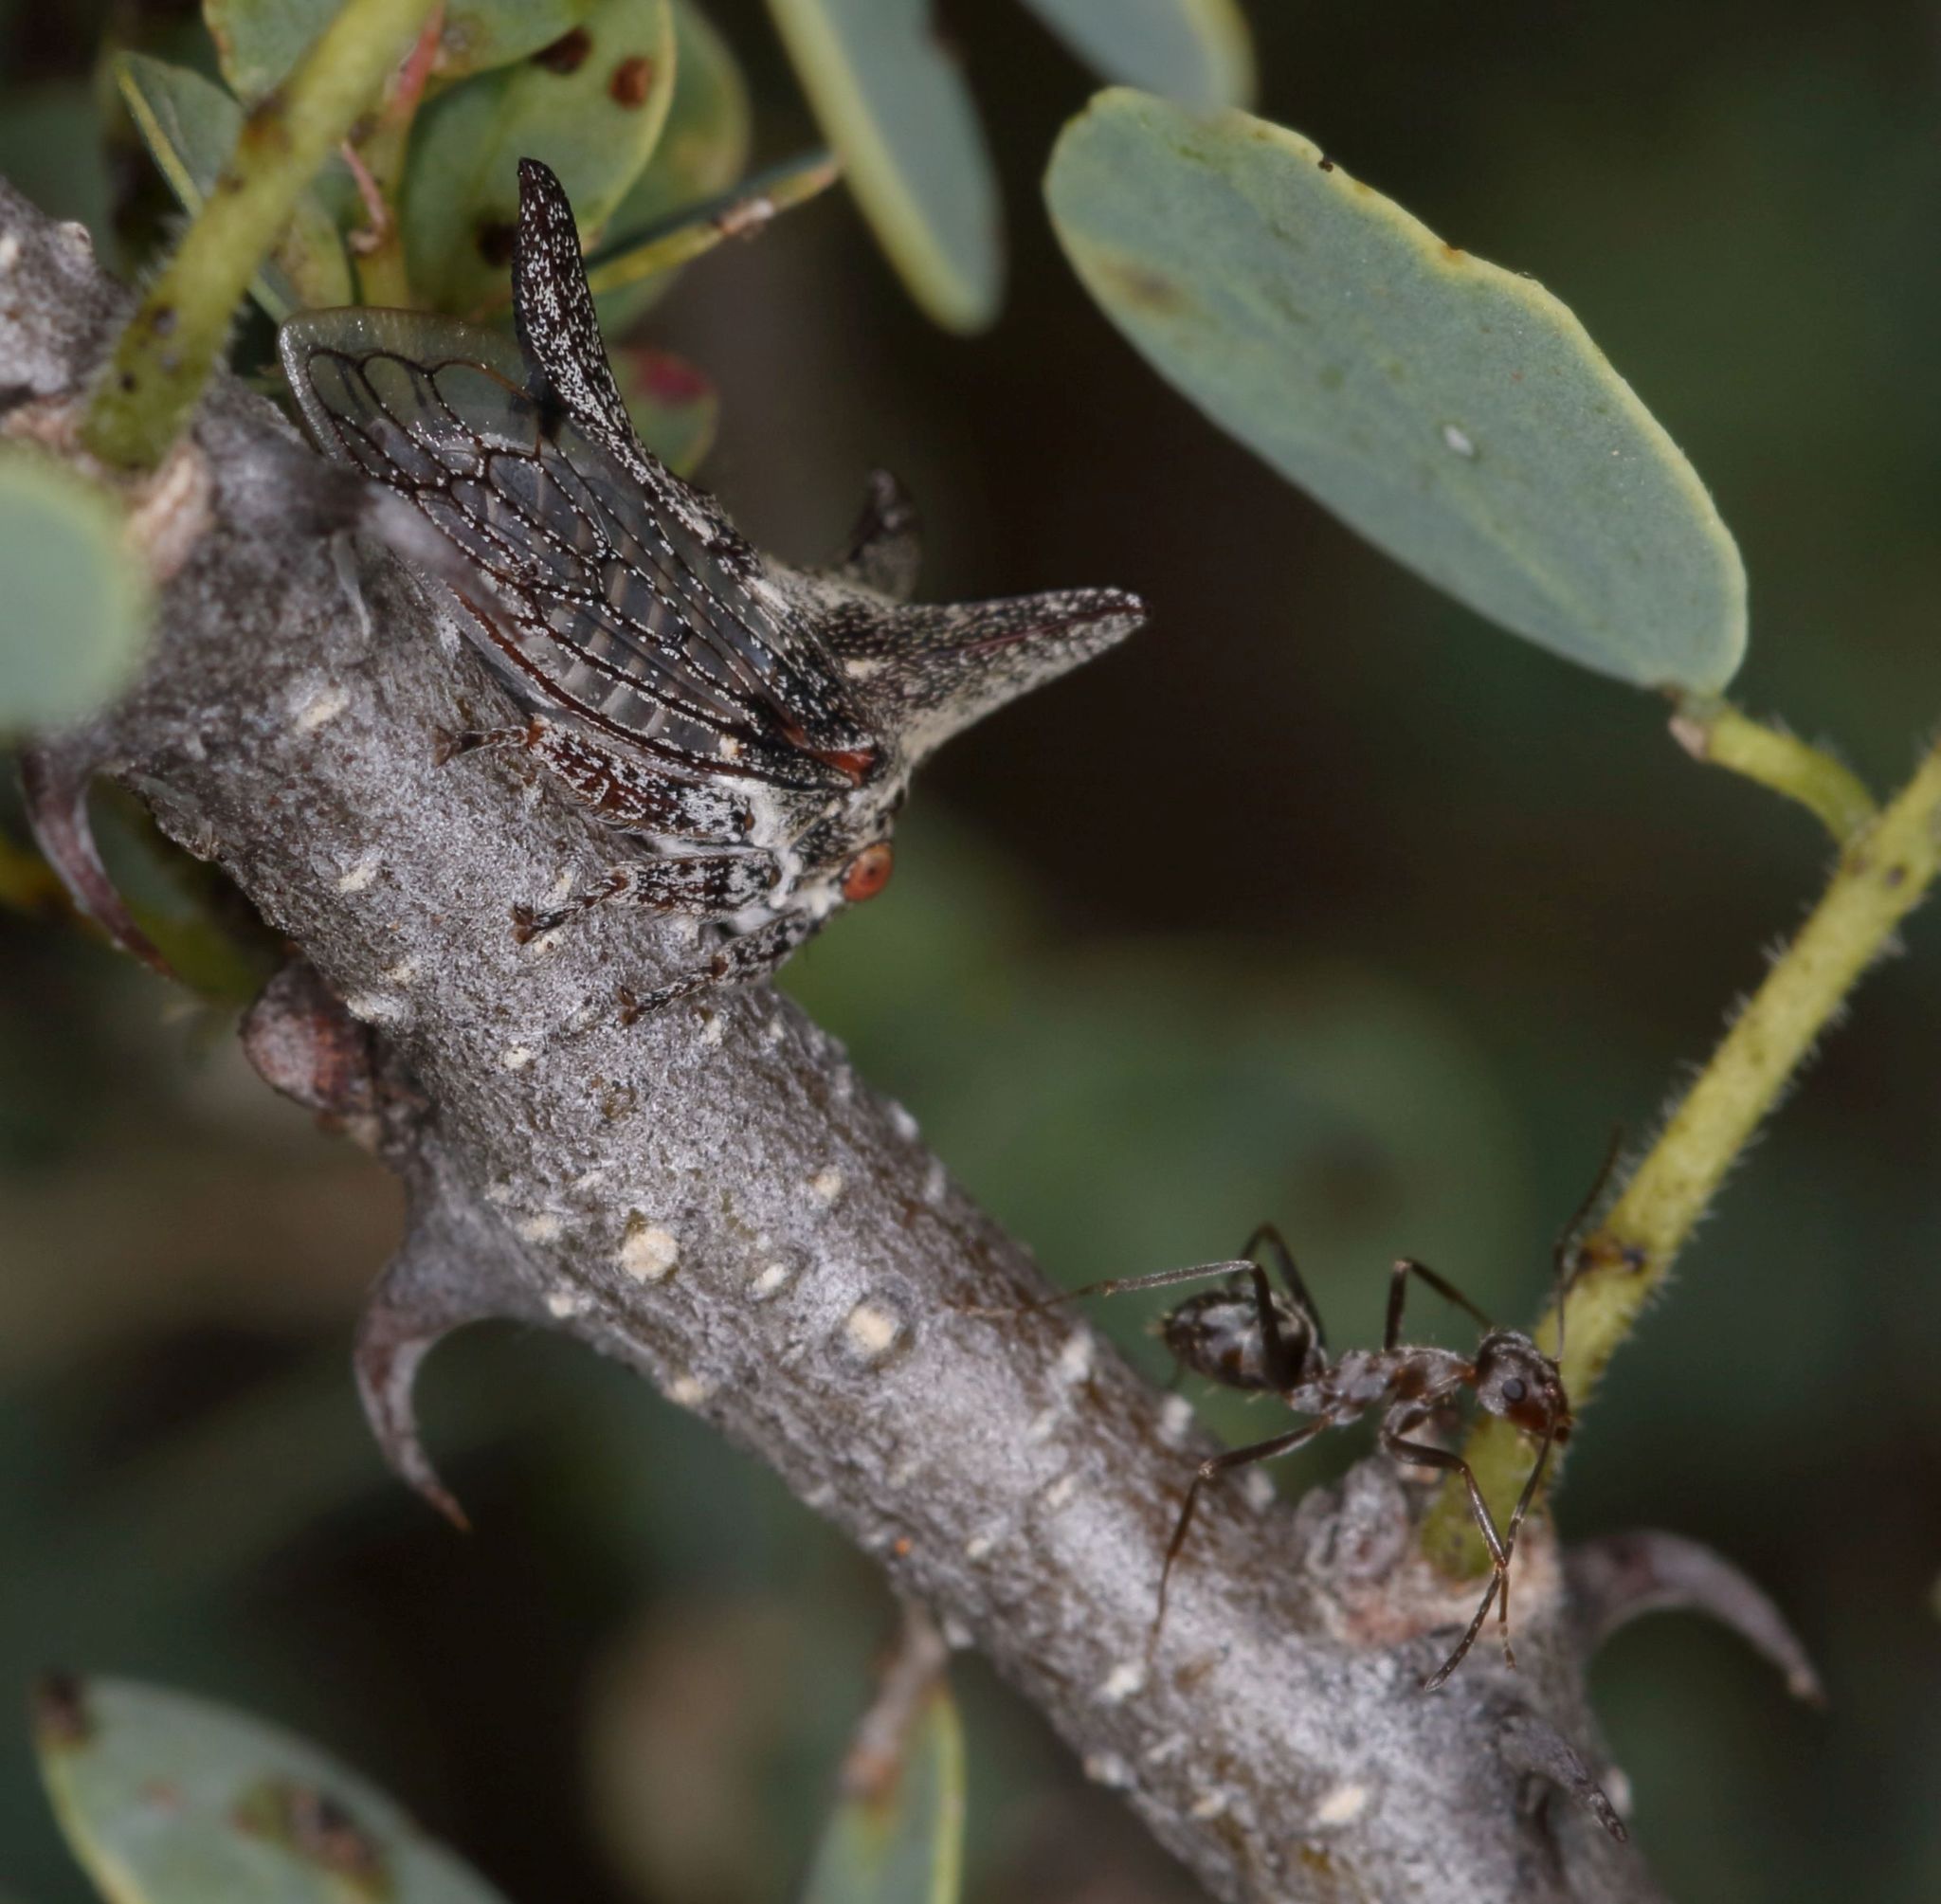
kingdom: Animalia
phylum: Arthropoda
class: Insecta
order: Hymenoptera
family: Formicidae
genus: Anoplolepis
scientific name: Anoplolepis custodiens
